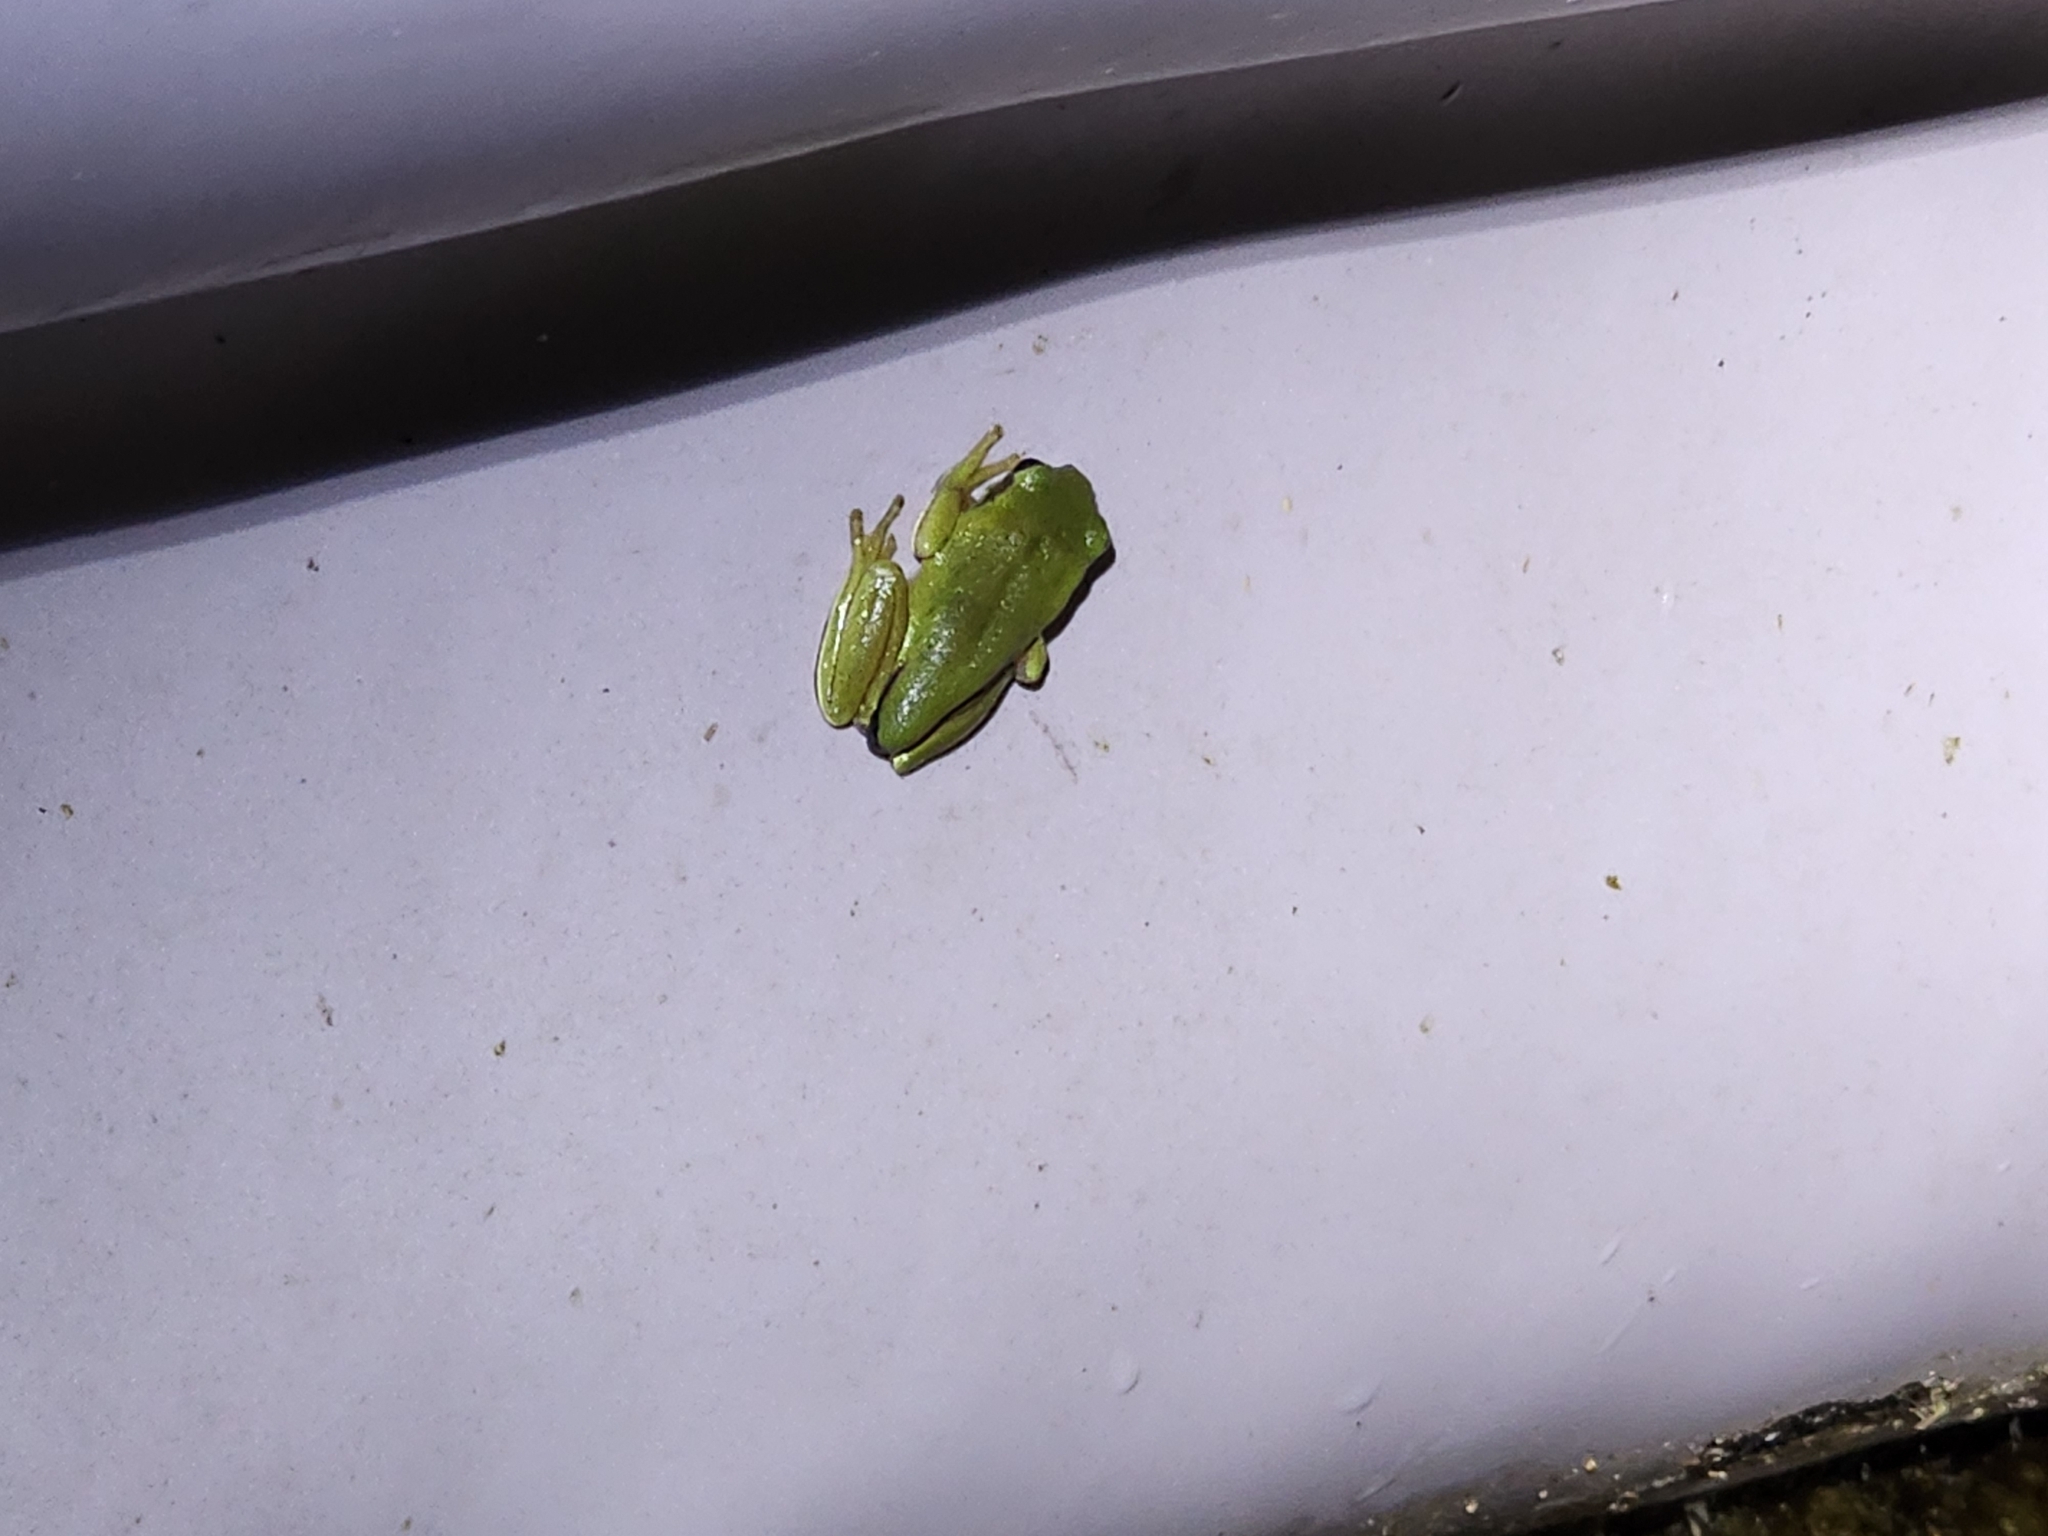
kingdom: Animalia
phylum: Chordata
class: Amphibia
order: Anura
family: Pelodryadidae
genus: Ranoidea
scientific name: Ranoidea caerulea
